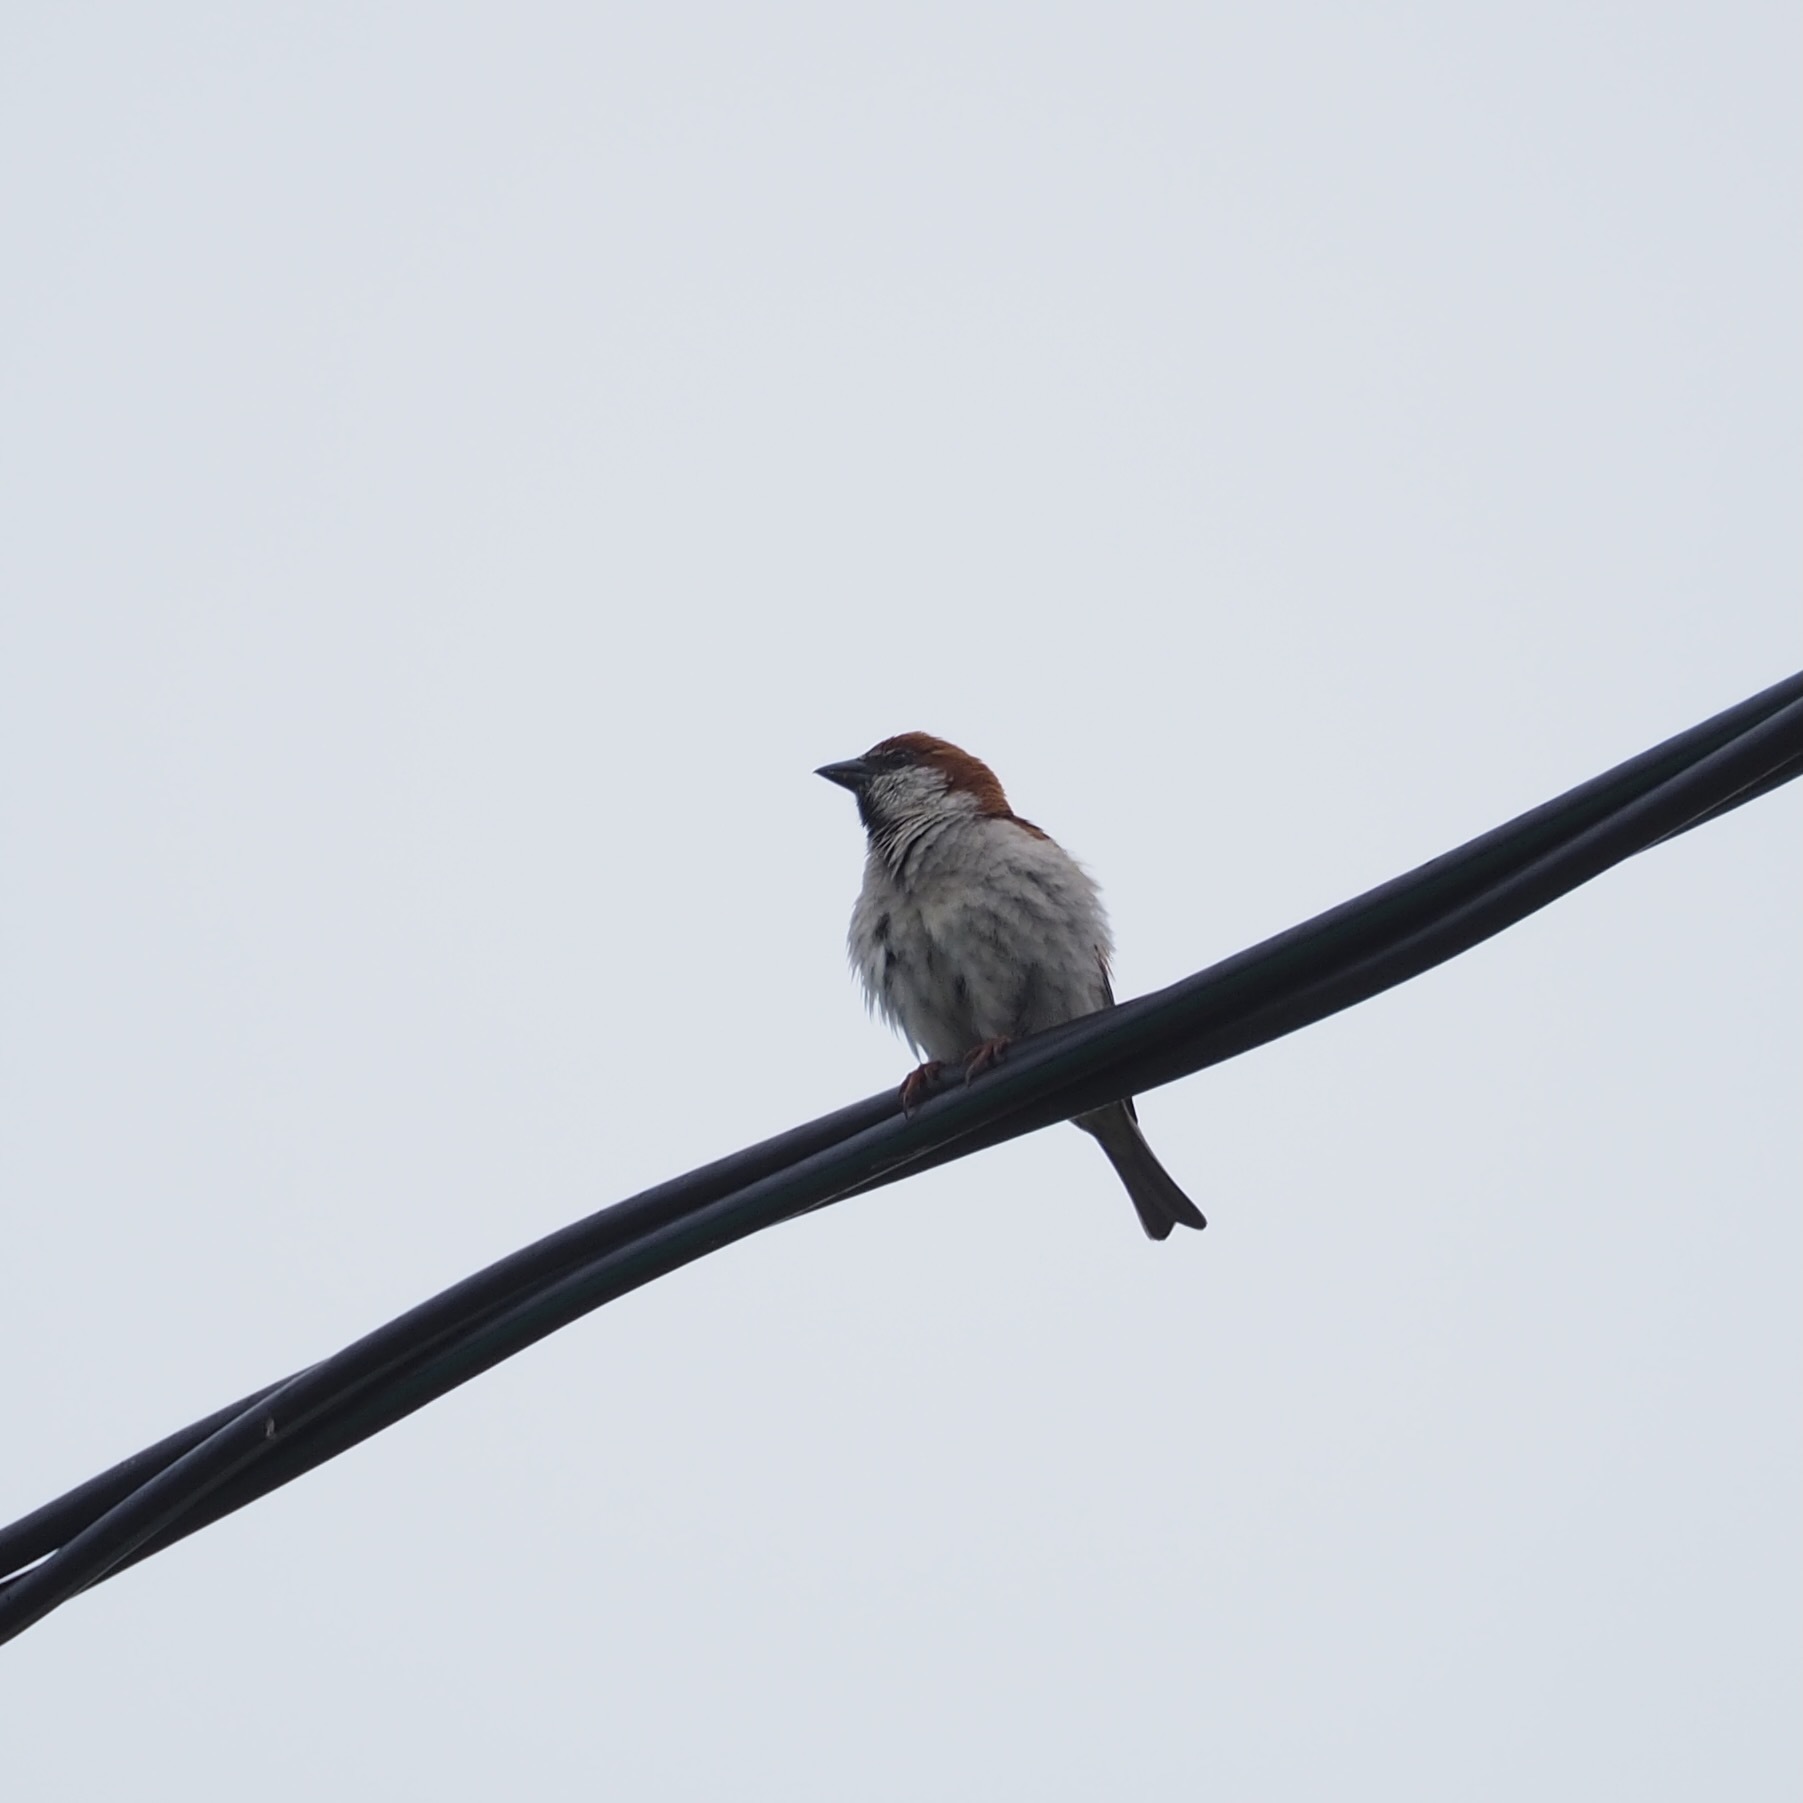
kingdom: Animalia
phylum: Chordata
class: Aves
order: Passeriformes
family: Passeridae
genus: Passer
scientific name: Passer rutilans
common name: Russet sparrow
